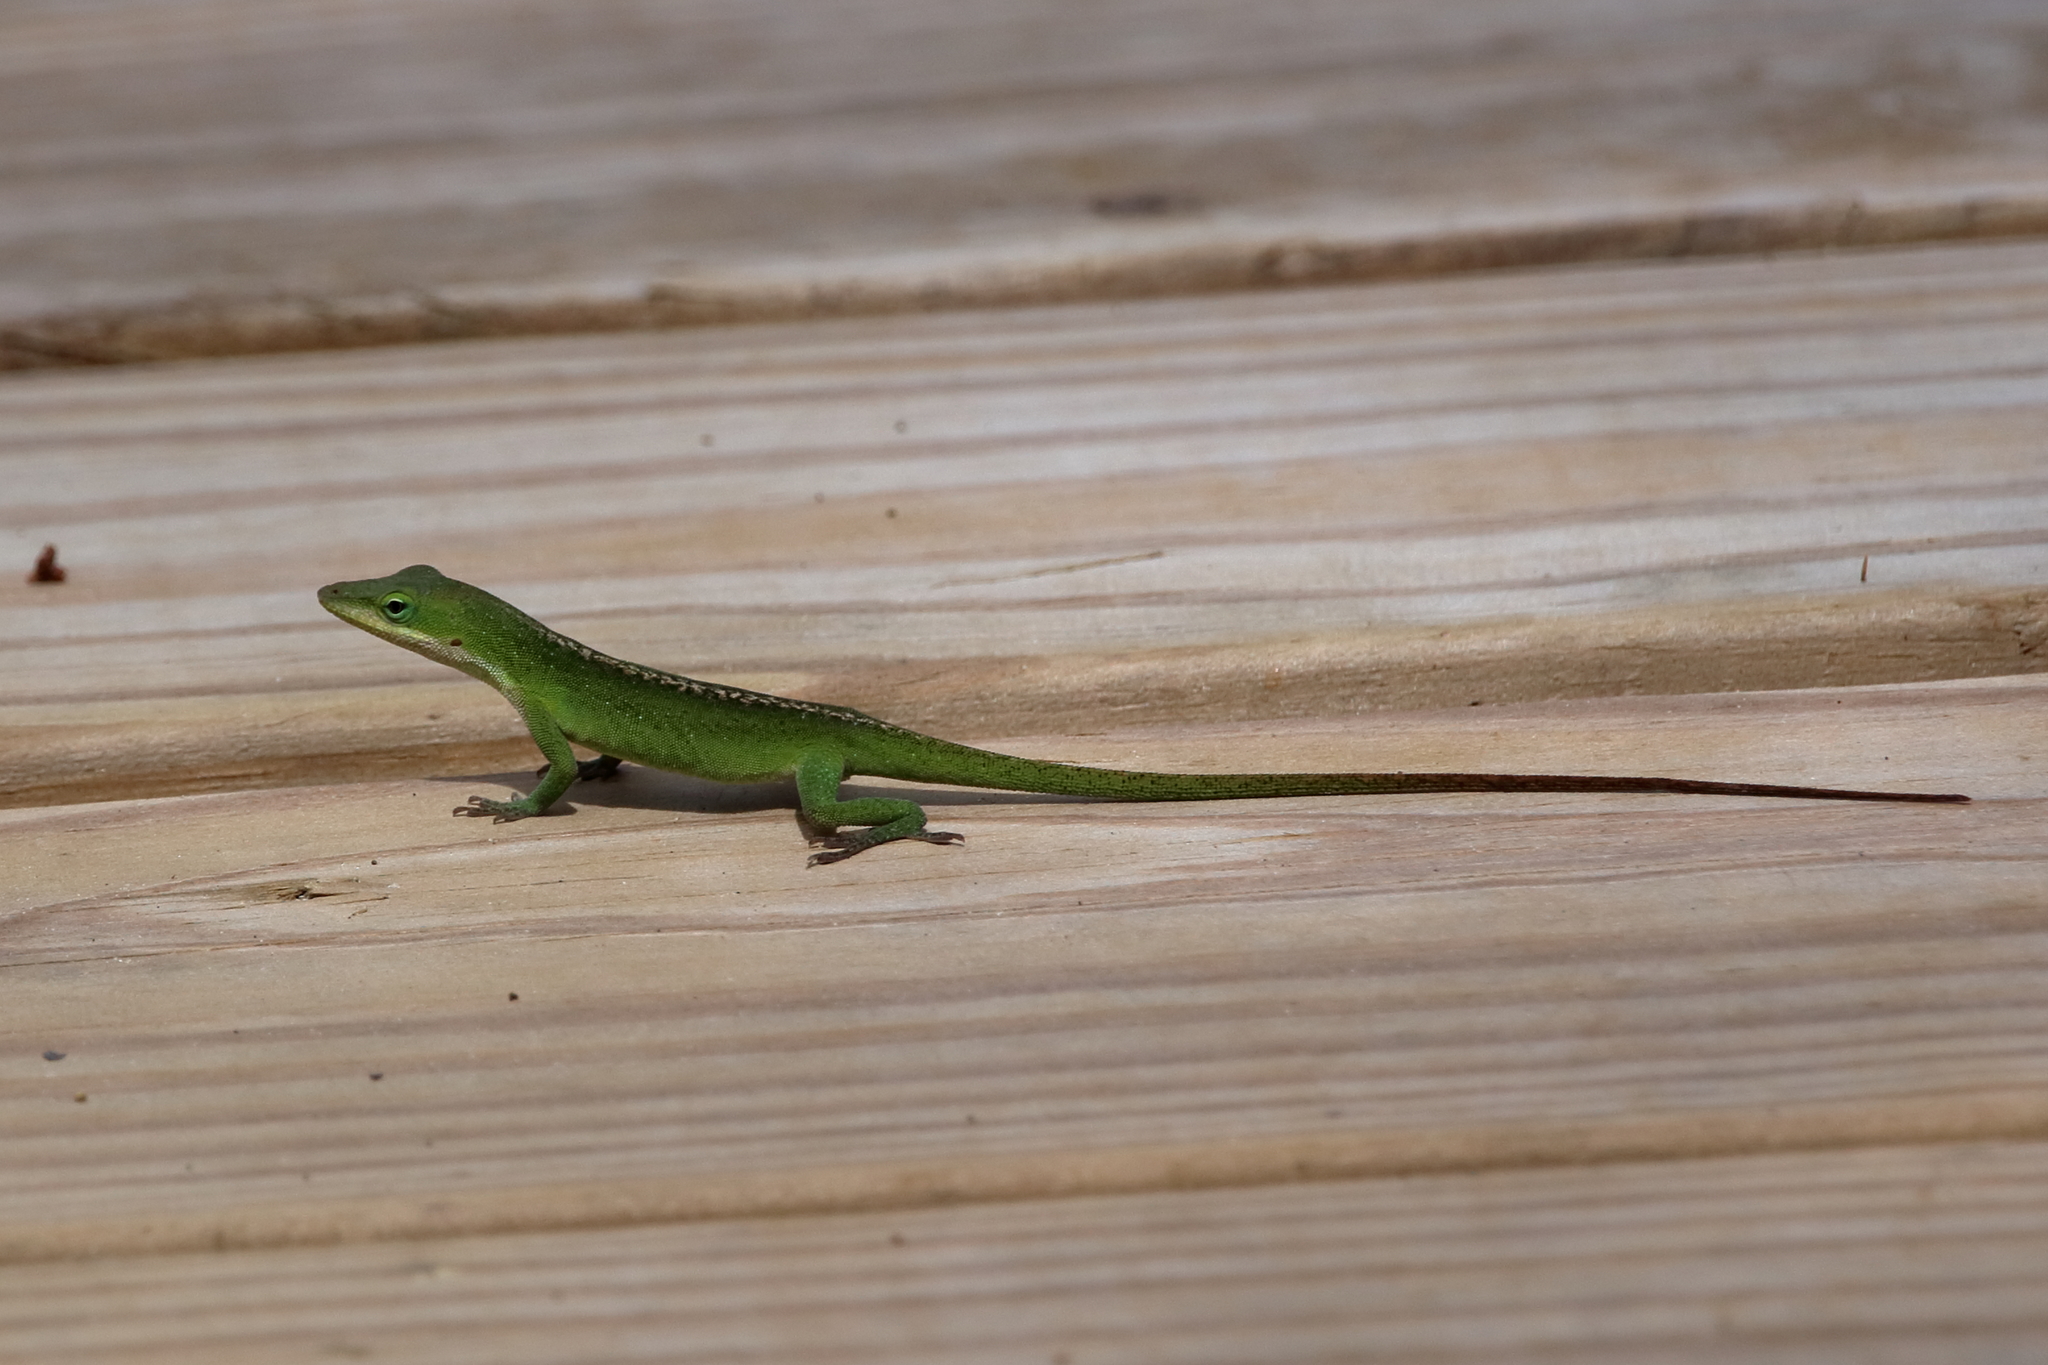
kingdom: Animalia
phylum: Chordata
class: Squamata
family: Dactyloidae
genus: Anolis
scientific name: Anolis carolinensis
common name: Green anole
